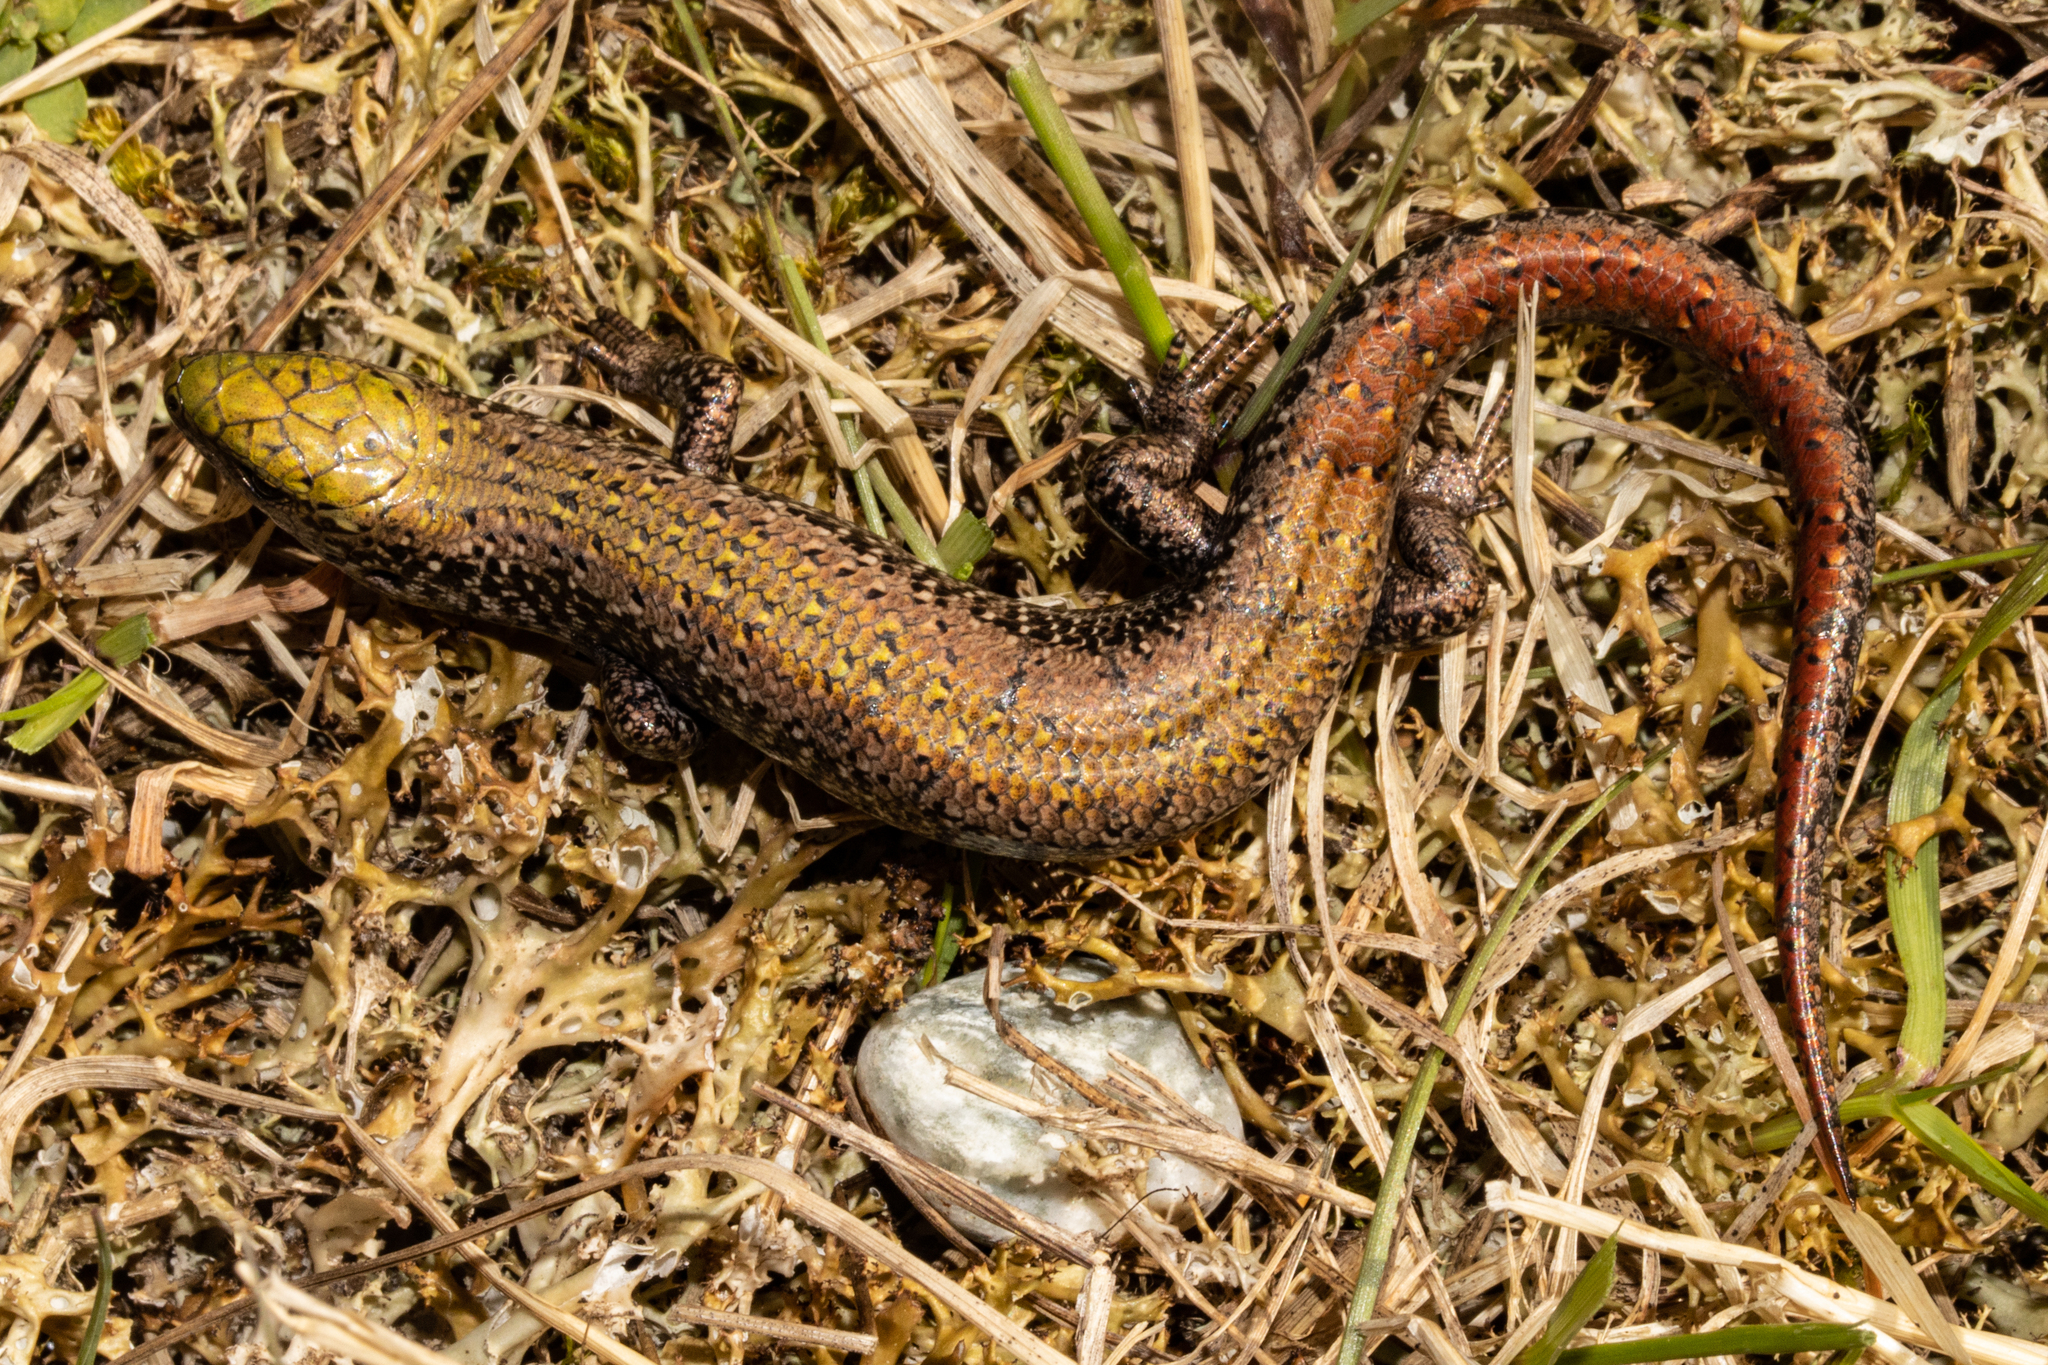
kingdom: Animalia
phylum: Chordata
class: Squamata
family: Scincidae
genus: Oligosoma
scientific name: Oligosoma chloronoton
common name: Green skink
